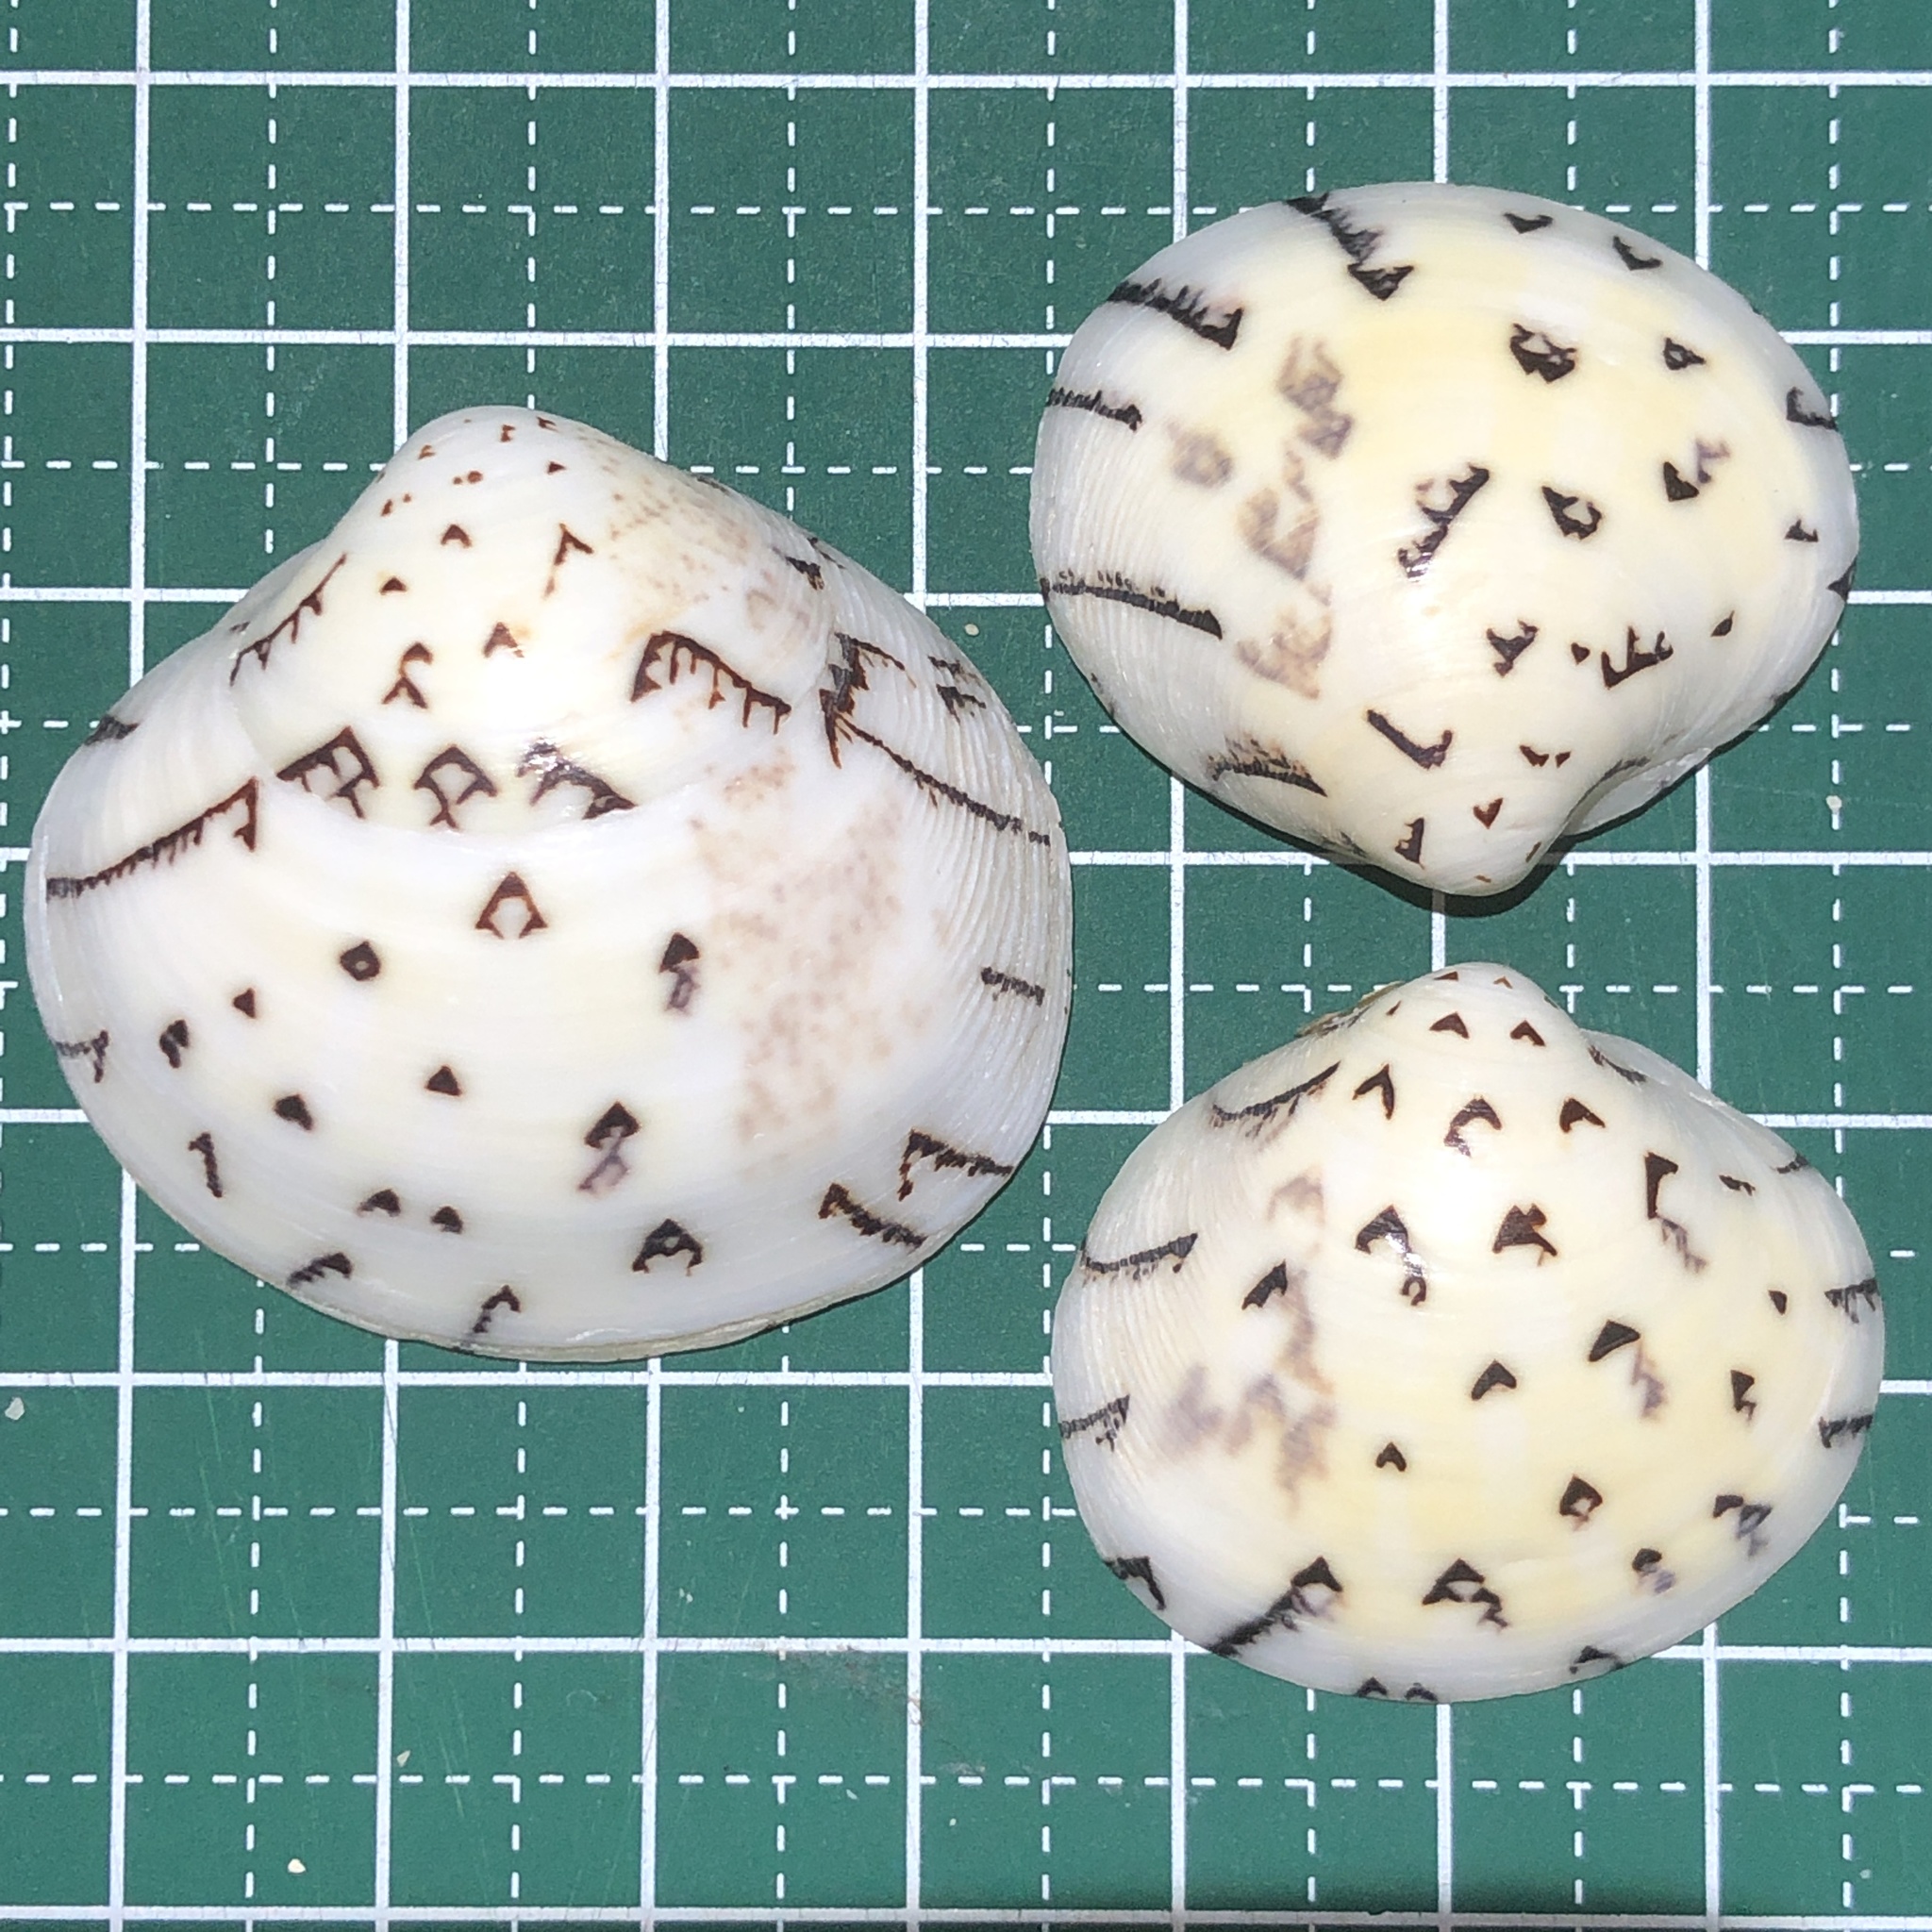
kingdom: Animalia
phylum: Mollusca
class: Bivalvia
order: Venerida
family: Veneridae
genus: Lioconcha
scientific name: Lioconcha castrensis
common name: Camp pitar-venus
